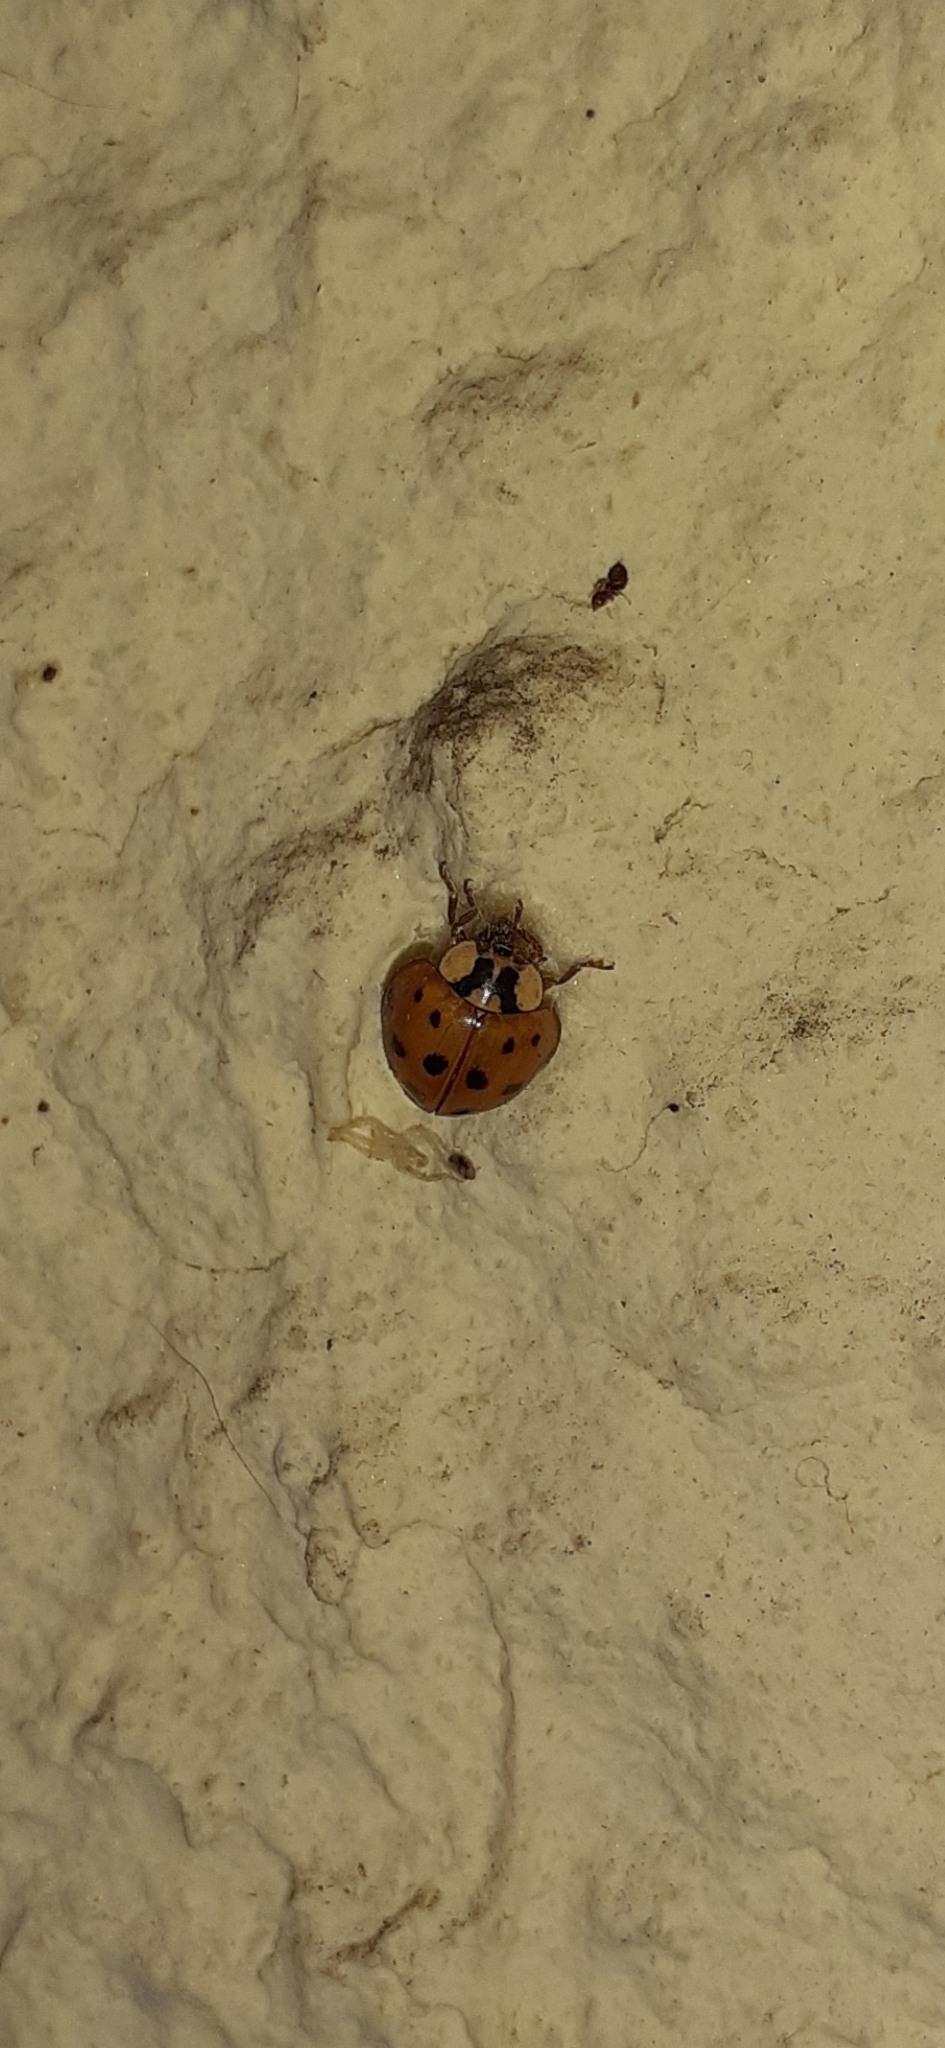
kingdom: Animalia
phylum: Arthropoda
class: Insecta
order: Coleoptera
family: Coccinellidae
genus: Harmonia
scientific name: Harmonia axyridis
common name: Harlequin ladybird
